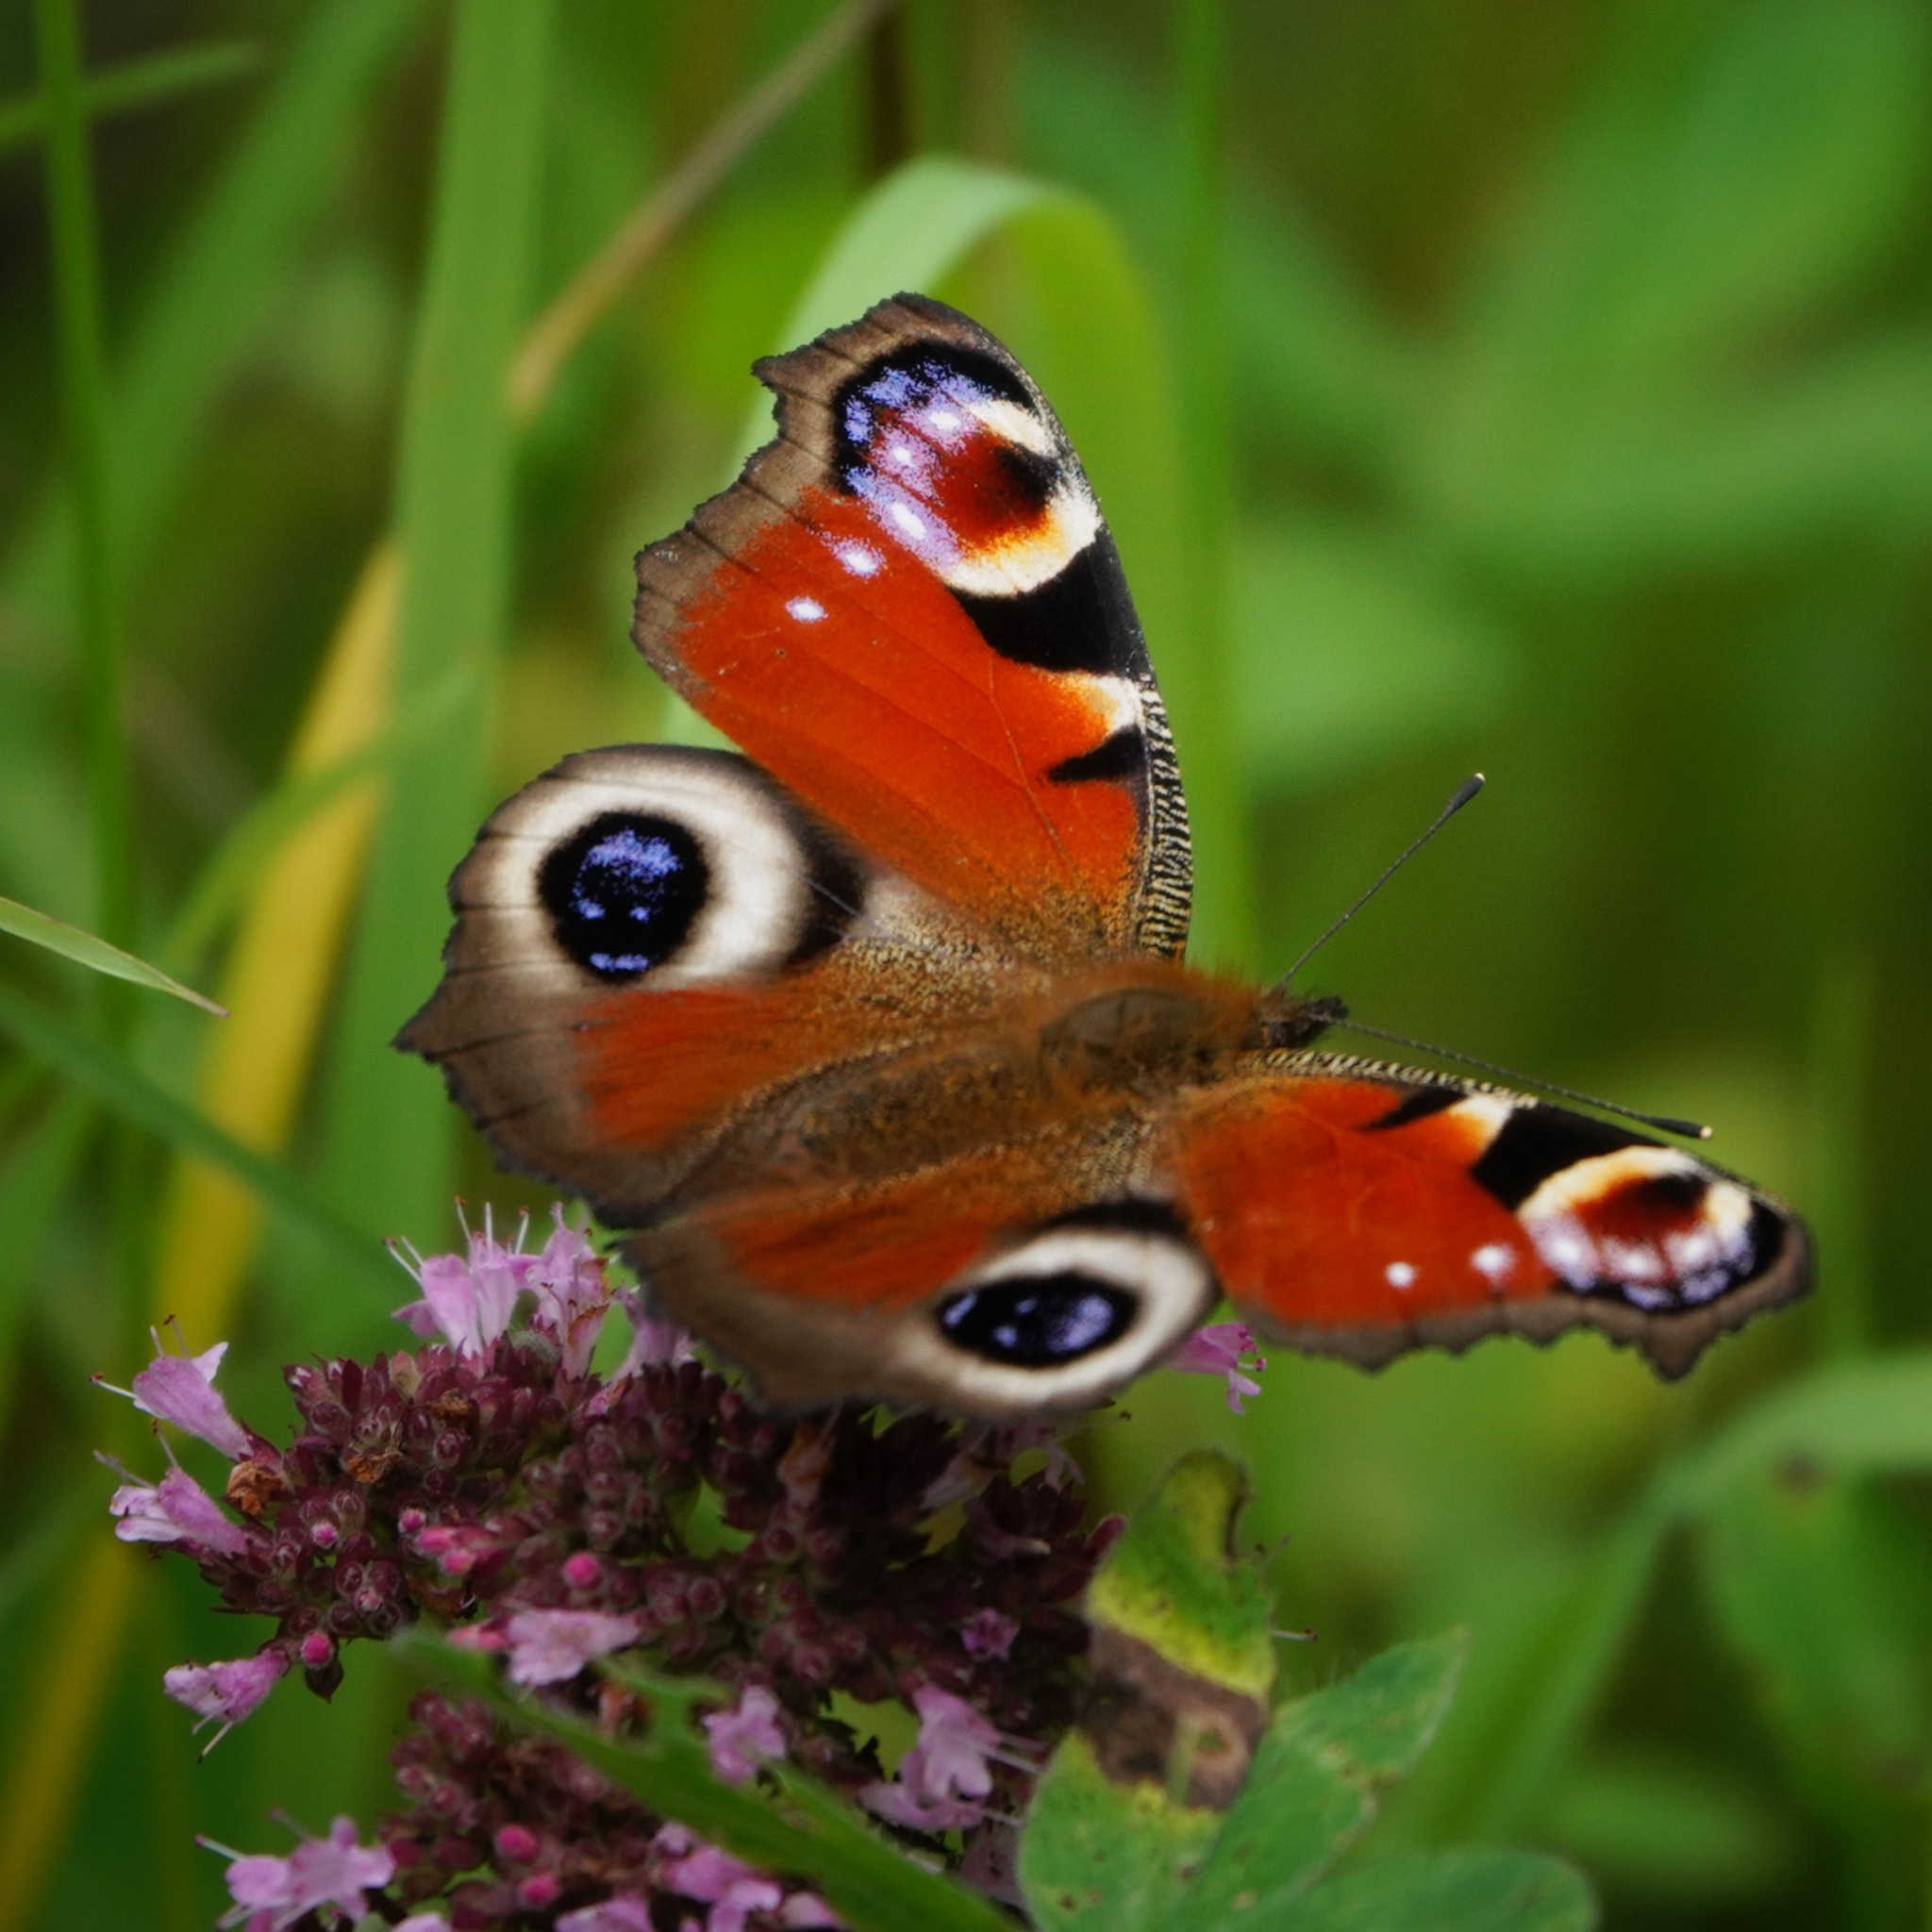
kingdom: Animalia
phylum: Arthropoda
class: Insecta
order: Lepidoptera
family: Nymphalidae
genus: Aglais
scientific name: Aglais io
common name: Peacock
